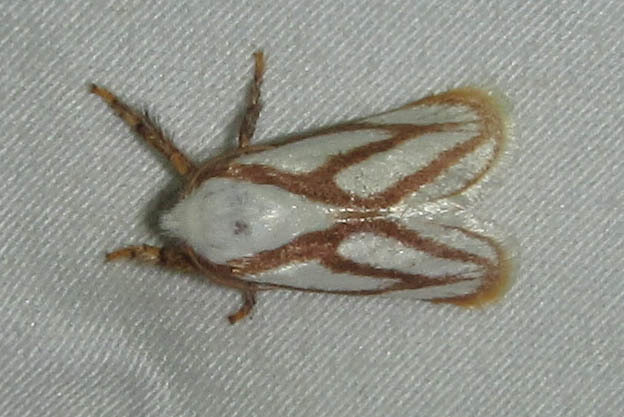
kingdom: Animalia
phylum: Arthropoda
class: Insecta
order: Lepidoptera
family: Limacodidae
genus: Parapluda
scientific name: Parapluda invitabilis
